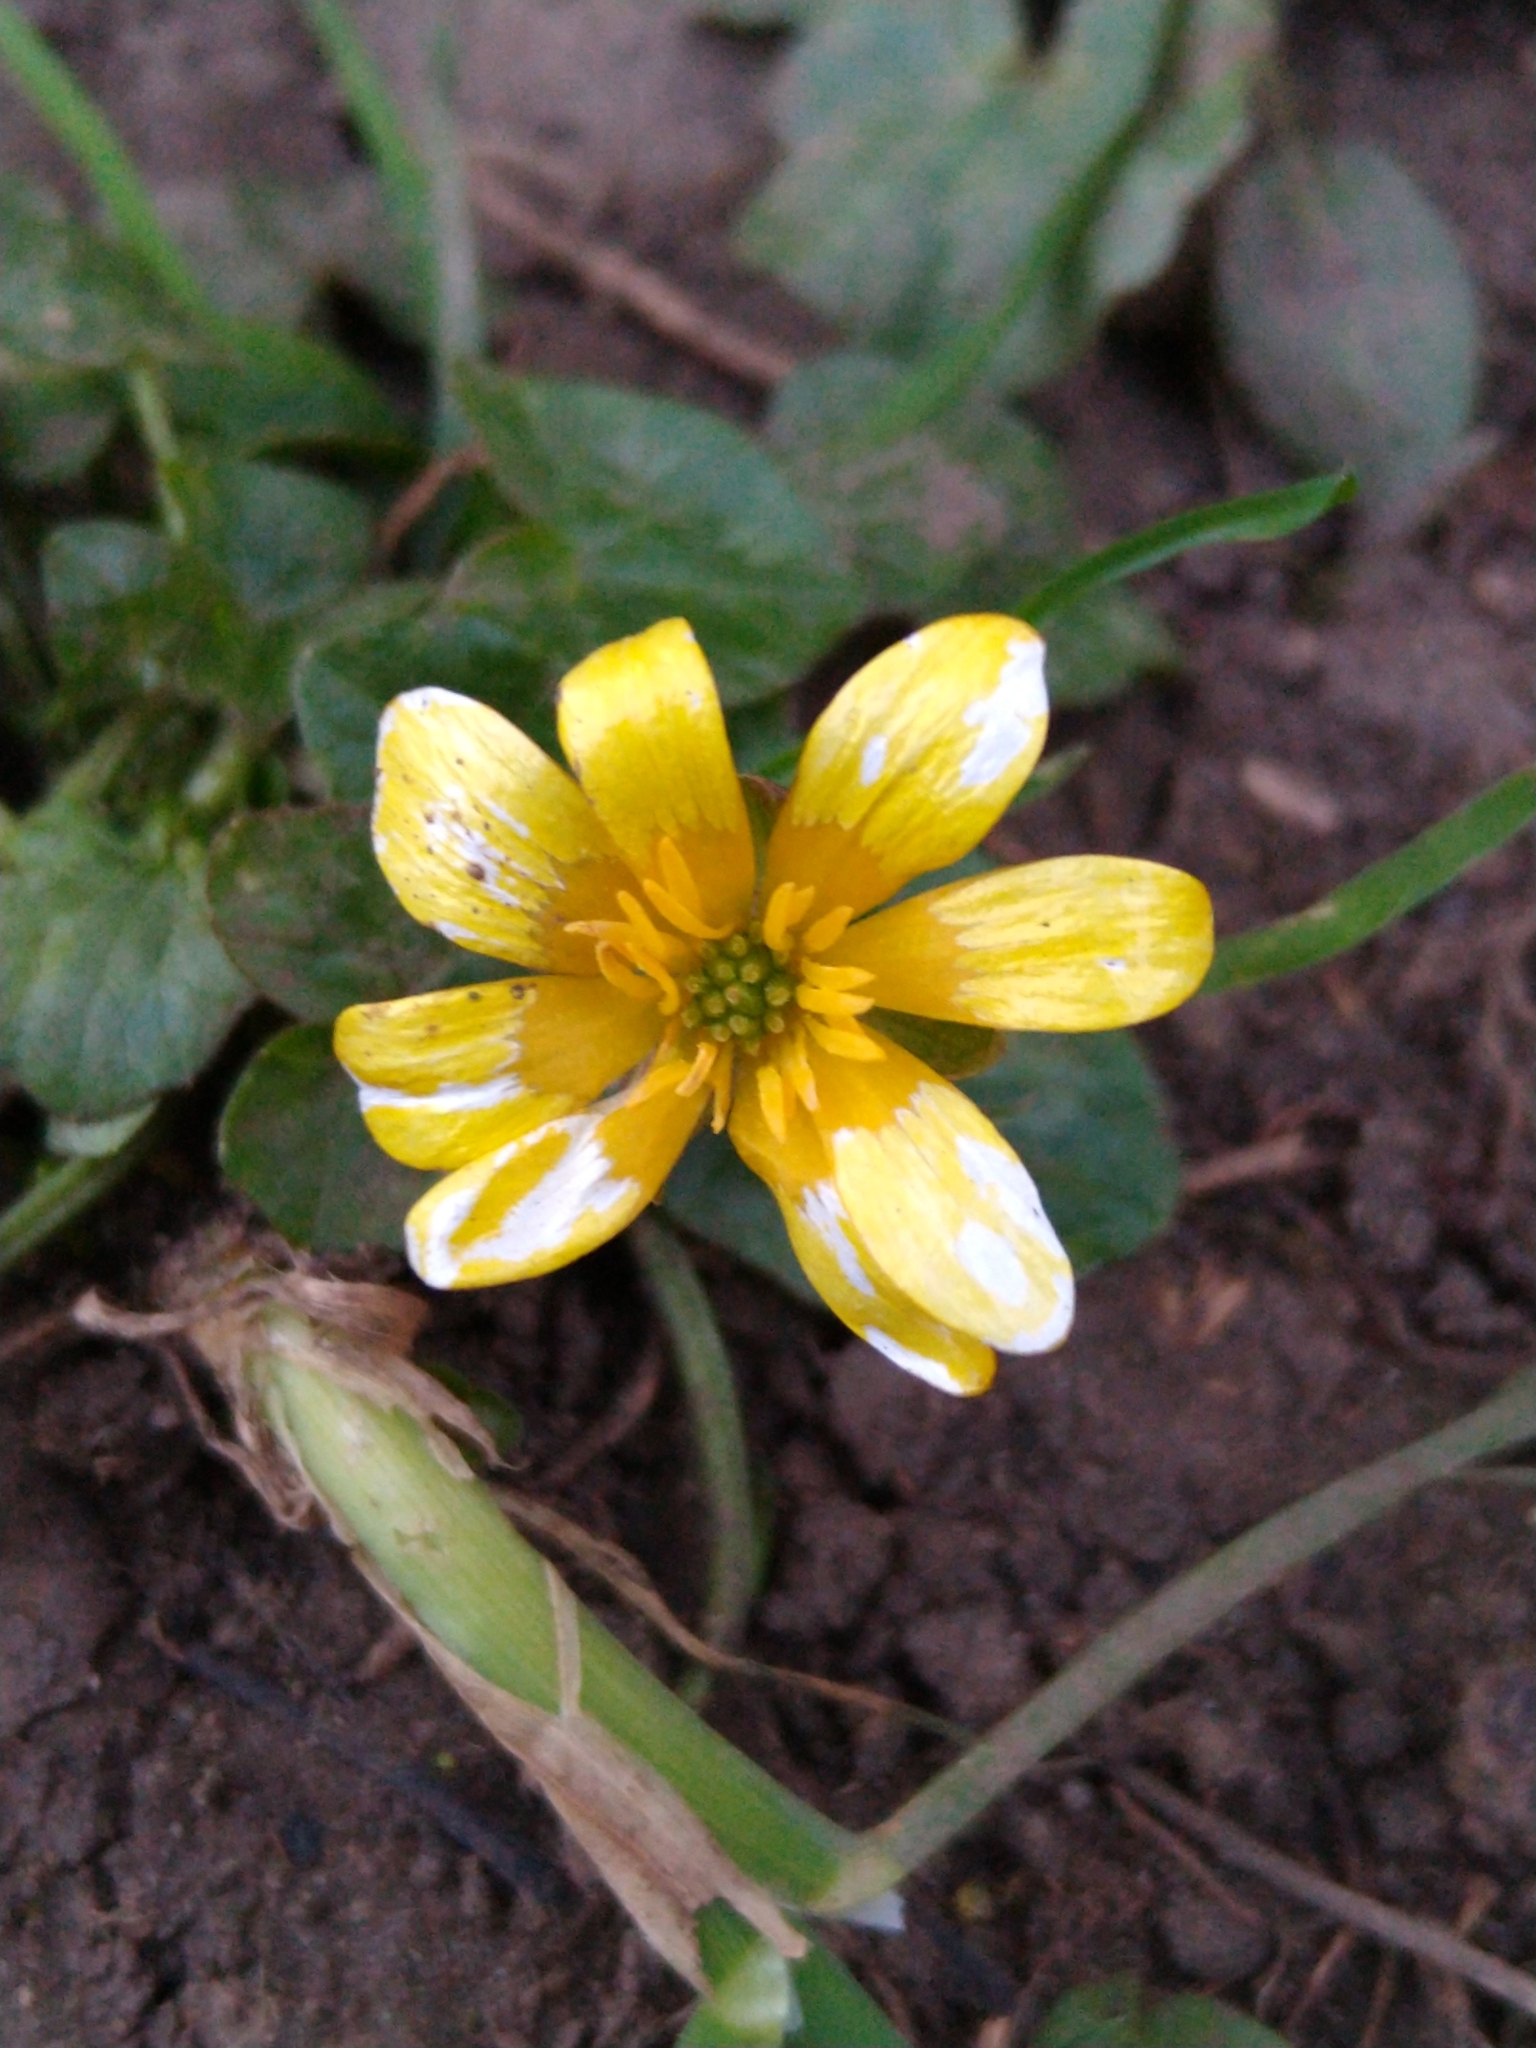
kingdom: Plantae
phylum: Tracheophyta
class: Magnoliopsida
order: Ranunculales
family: Ranunculaceae
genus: Ficaria
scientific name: Ficaria verna
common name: Lesser celandine
